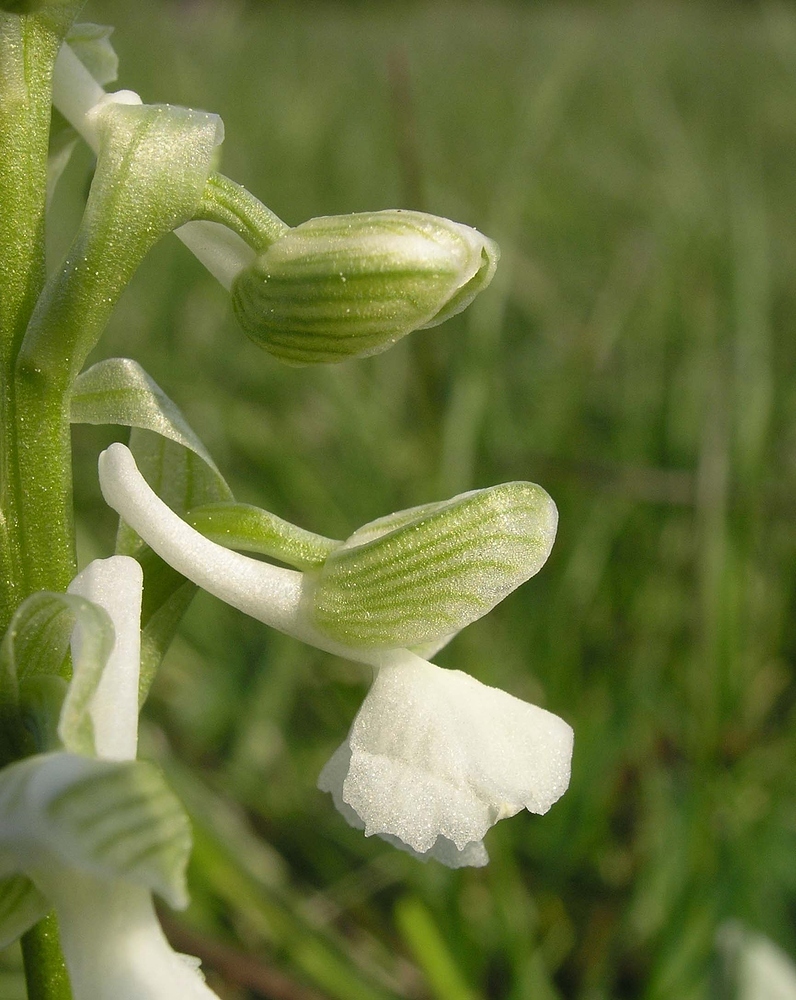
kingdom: Plantae
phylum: Tracheophyta
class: Liliopsida
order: Asparagales
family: Orchidaceae
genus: Anacamptis
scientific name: Anacamptis morio
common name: Green-winged orchid
